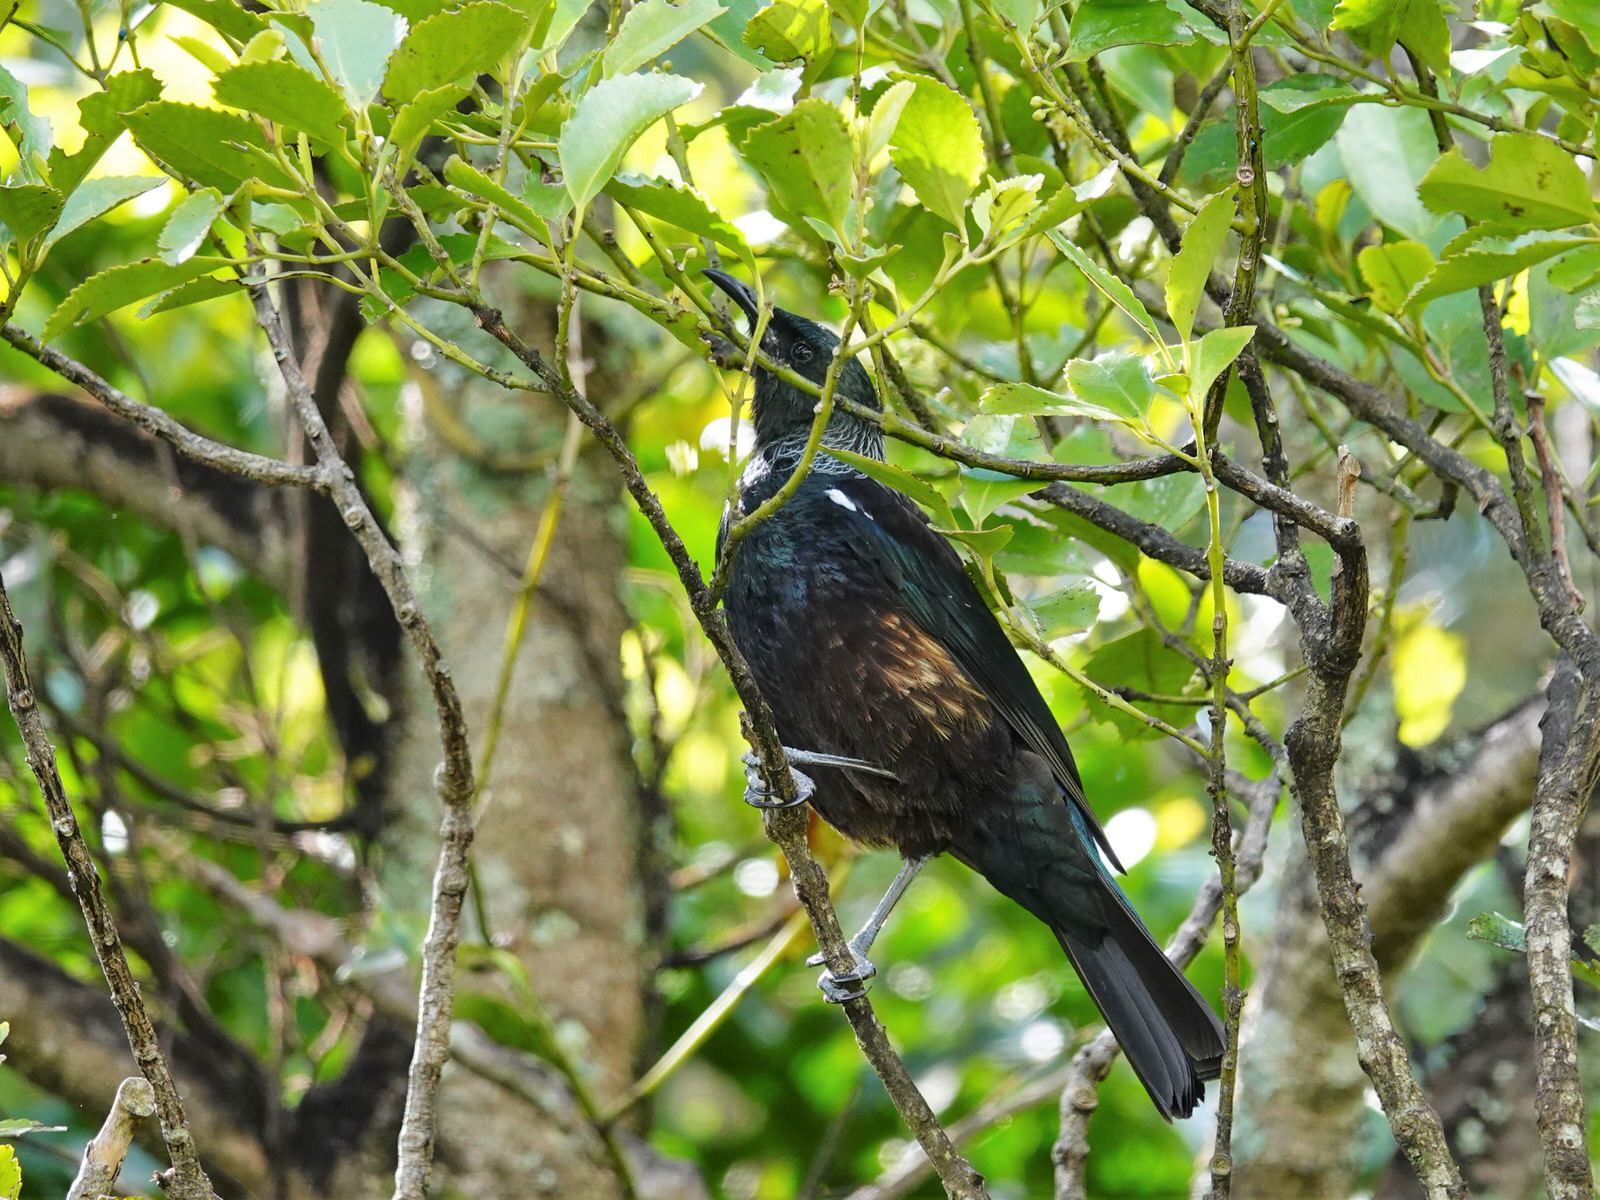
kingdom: Animalia
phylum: Chordata
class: Aves
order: Passeriformes
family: Meliphagidae
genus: Prosthemadera
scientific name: Prosthemadera novaeseelandiae
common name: Tui
